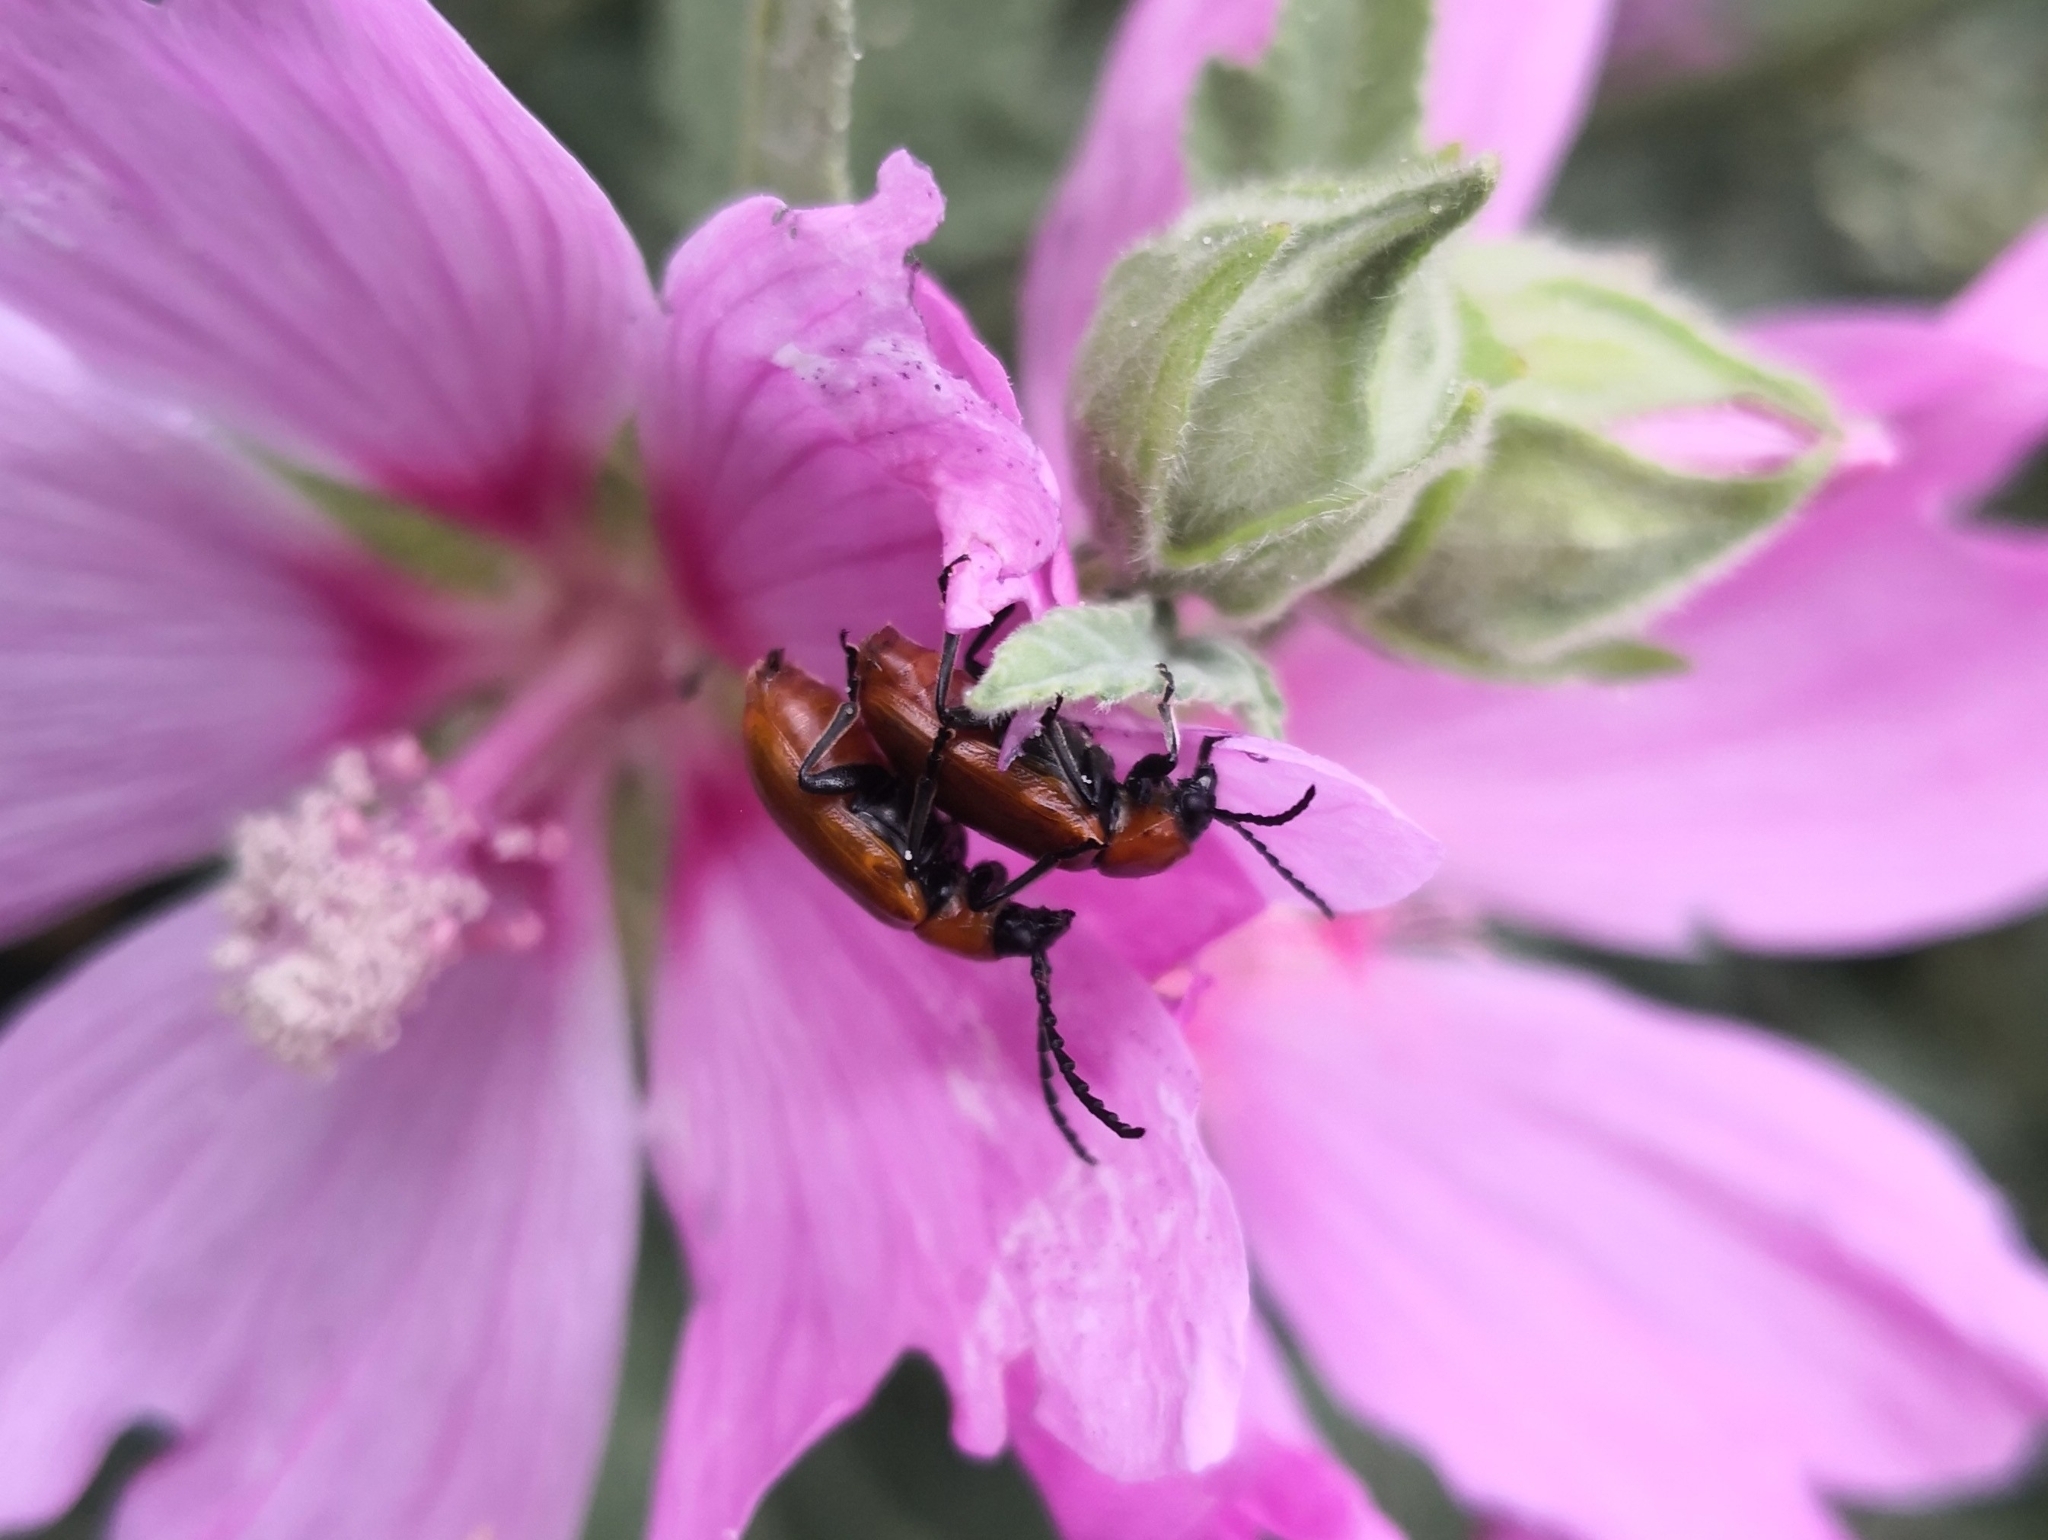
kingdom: Animalia
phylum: Arthropoda
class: Insecta
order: Coleoptera
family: Chrysomelidae
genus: Exosoma
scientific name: Exosoma lusitanicum
